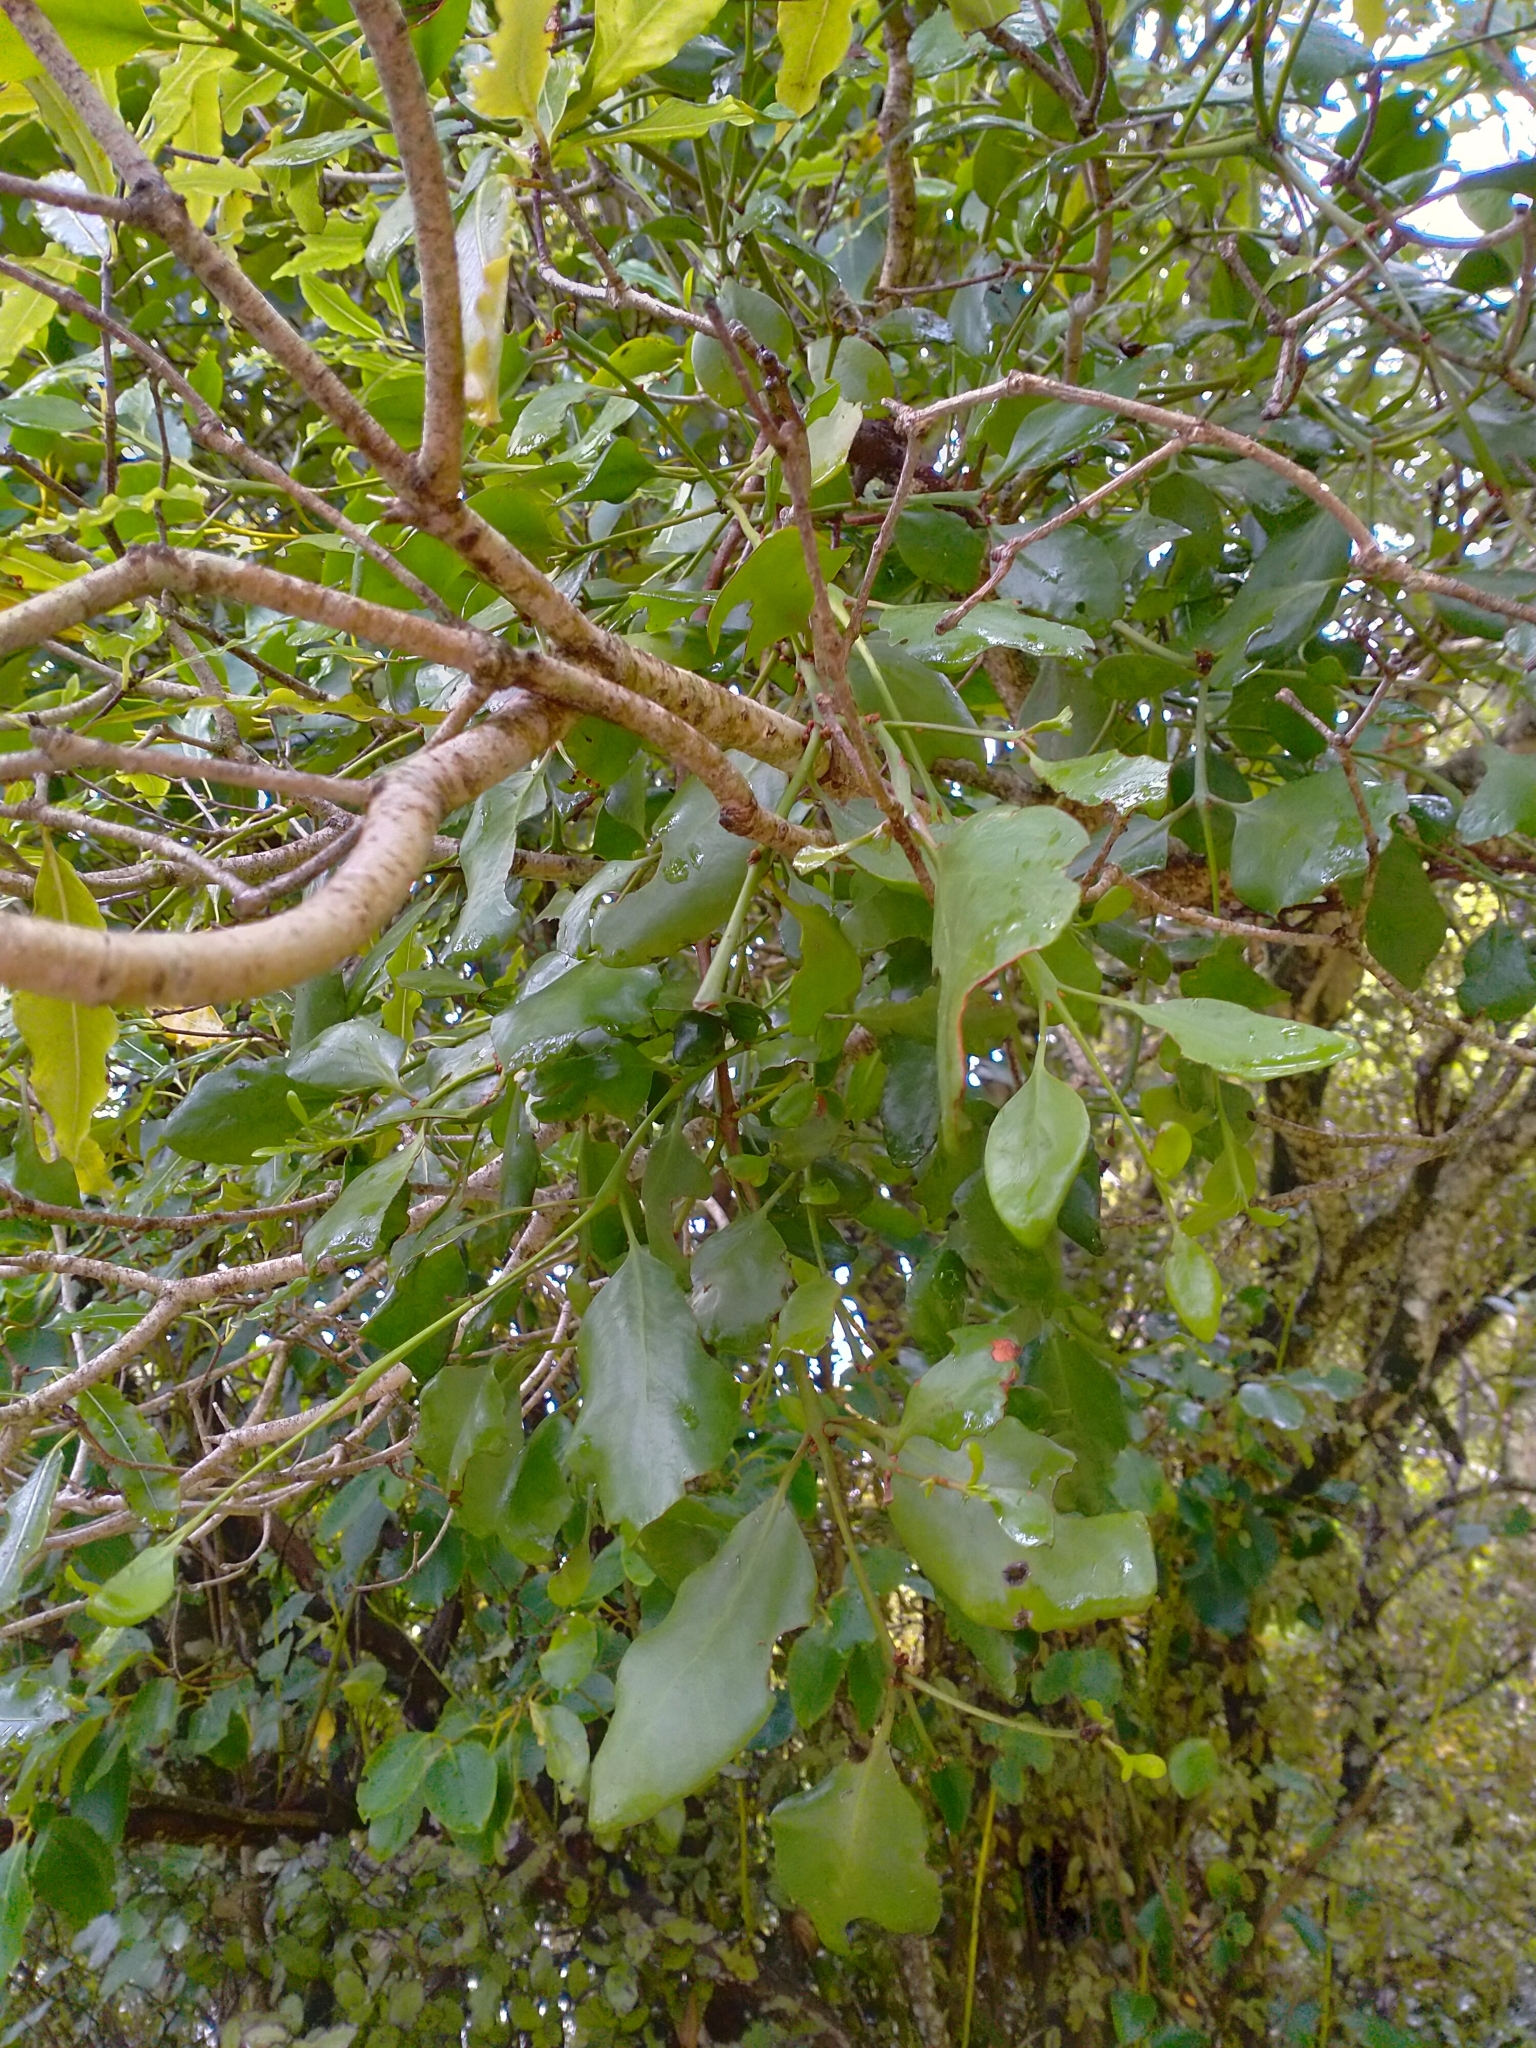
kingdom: Plantae
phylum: Tracheophyta
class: Magnoliopsida
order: Santalales
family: Loranthaceae
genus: Ileostylus
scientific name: Ileostylus micranthus
